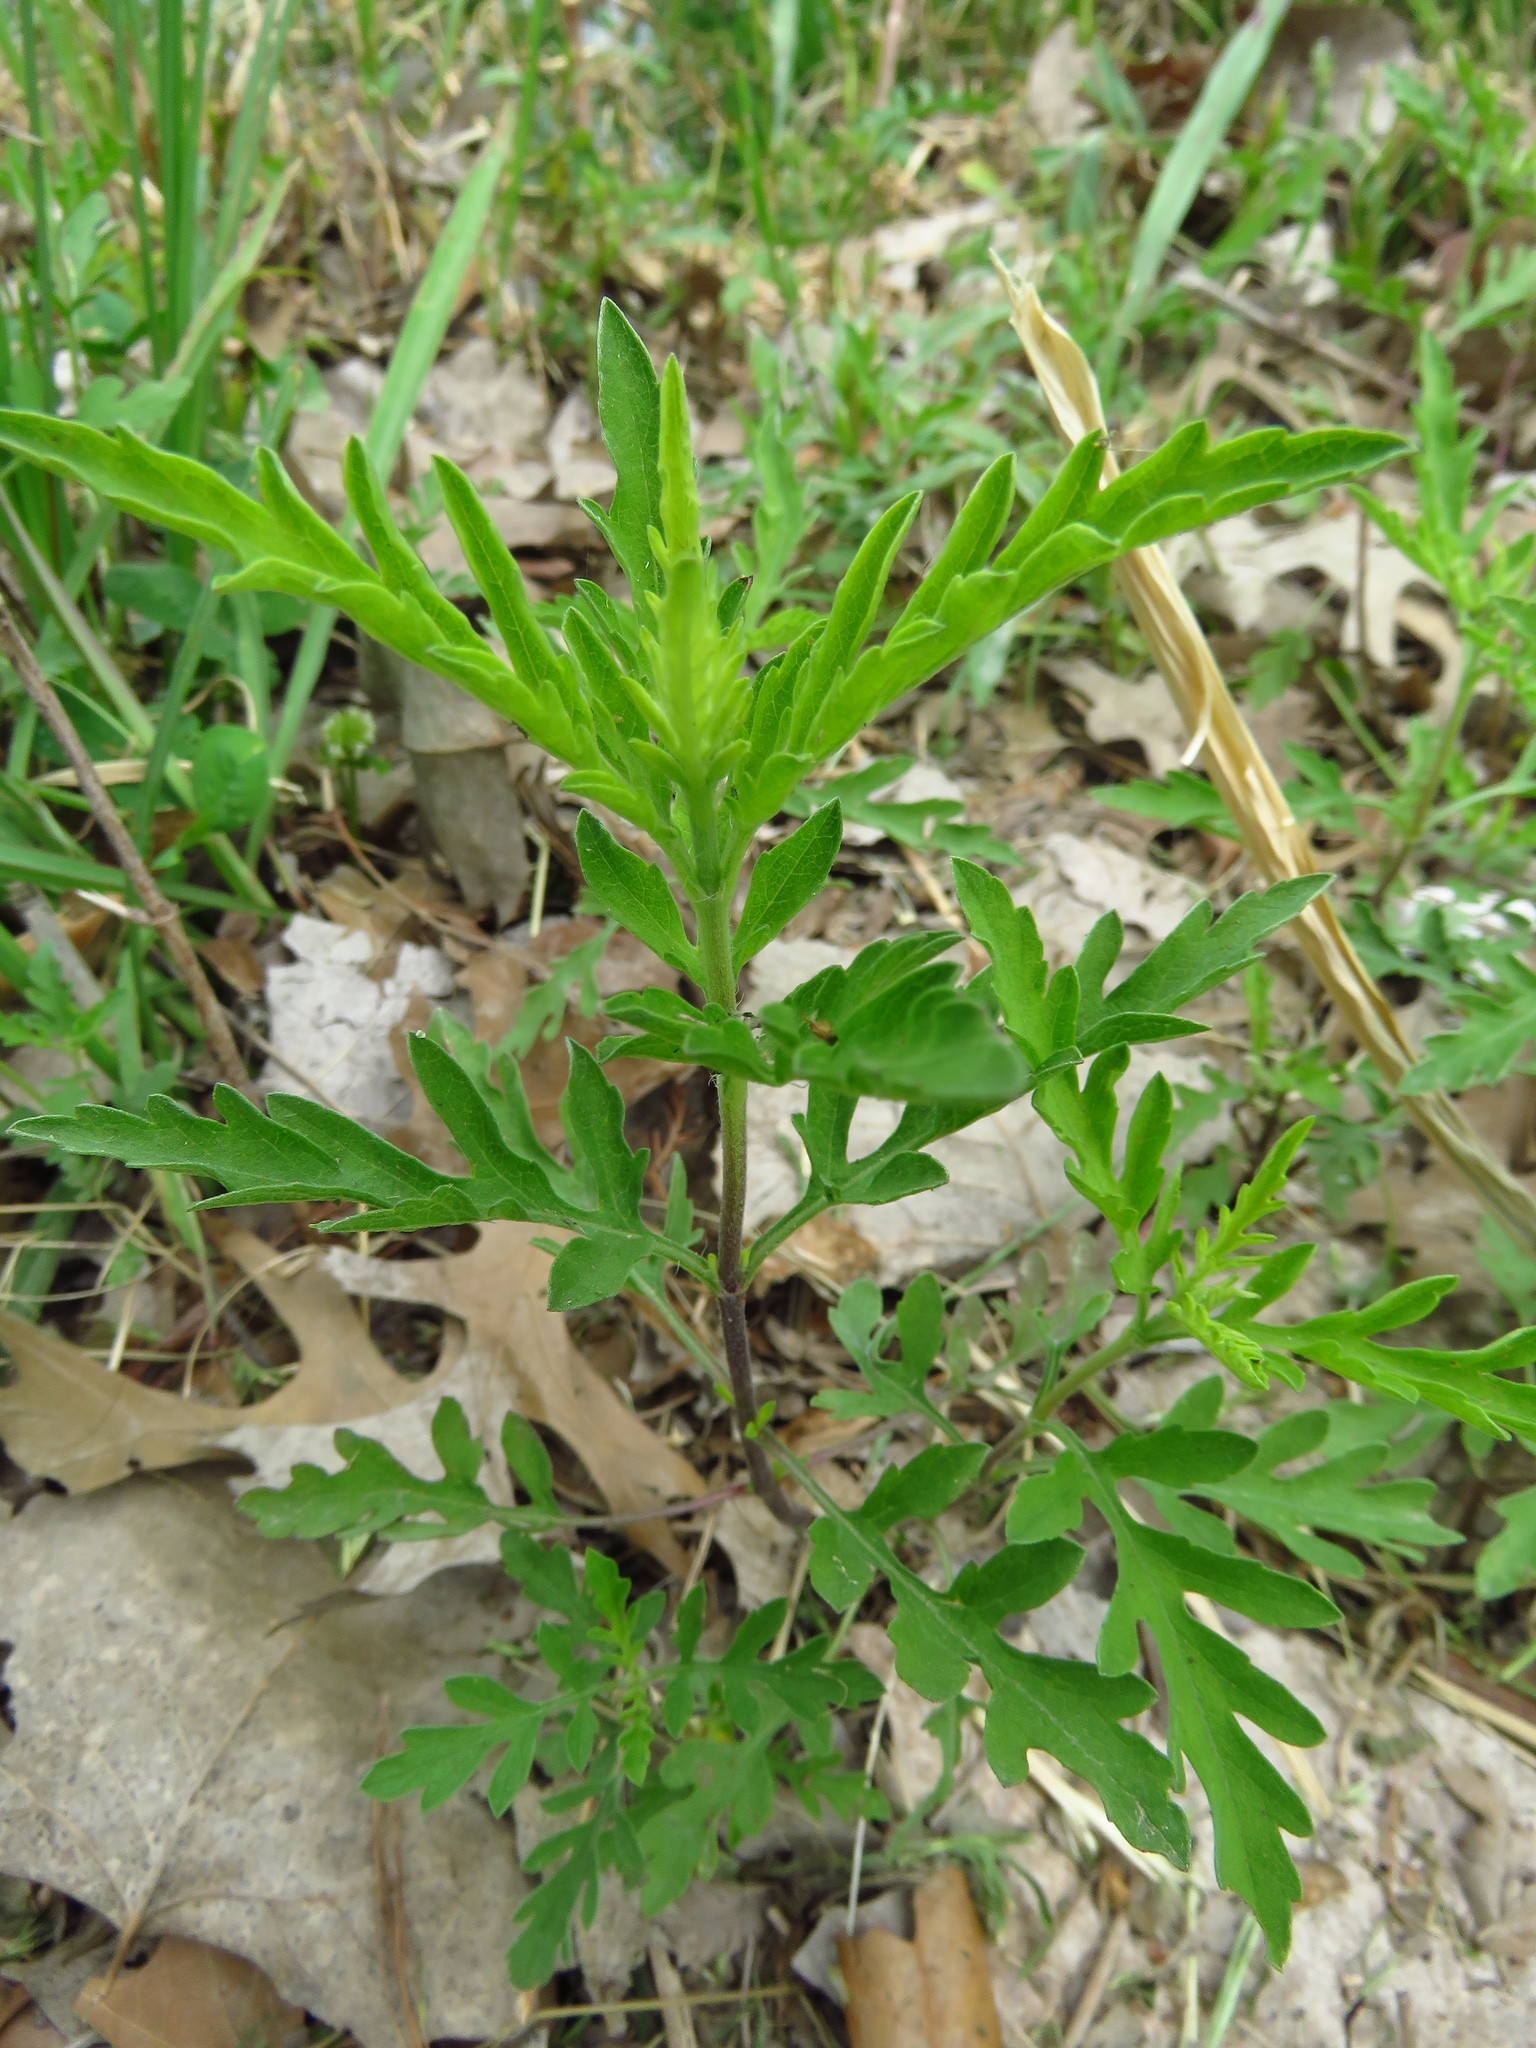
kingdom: Plantae
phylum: Tracheophyta
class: Magnoliopsida
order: Asterales
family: Asteraceae
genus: Ambrosia
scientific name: Ambrosia psilostachya
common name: Perennial ragweed
